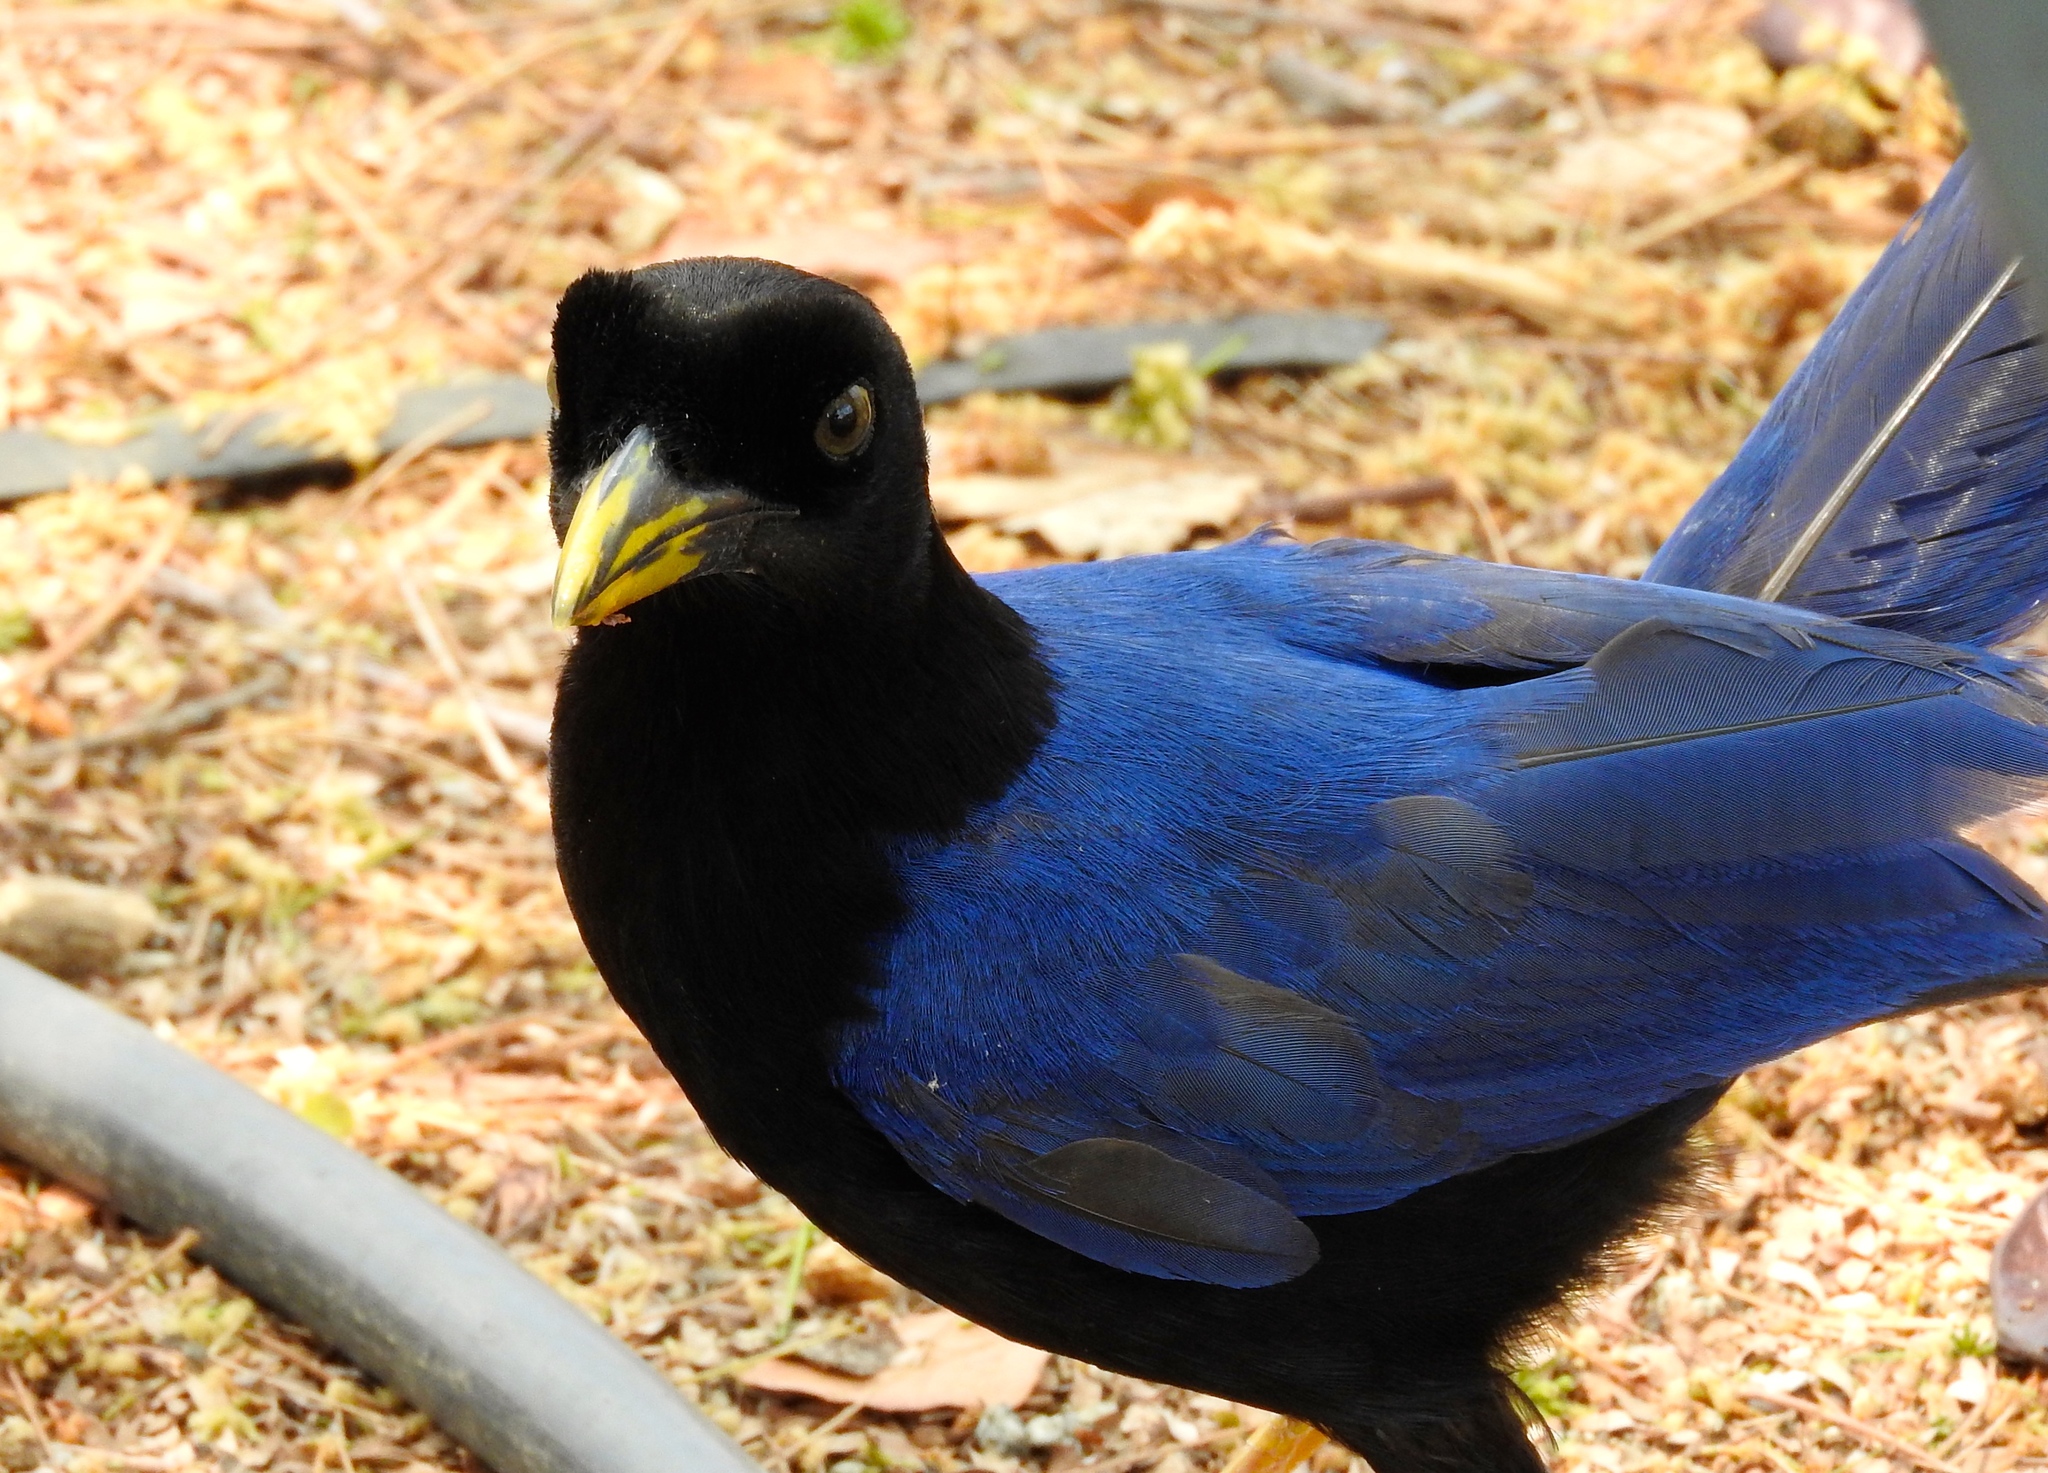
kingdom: Animalia
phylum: Chordata
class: Aves
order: Passeriformes
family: Corvidae
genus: Cyanocorax
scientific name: Cyanocorax beecheii
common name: Purplish-backed jay
